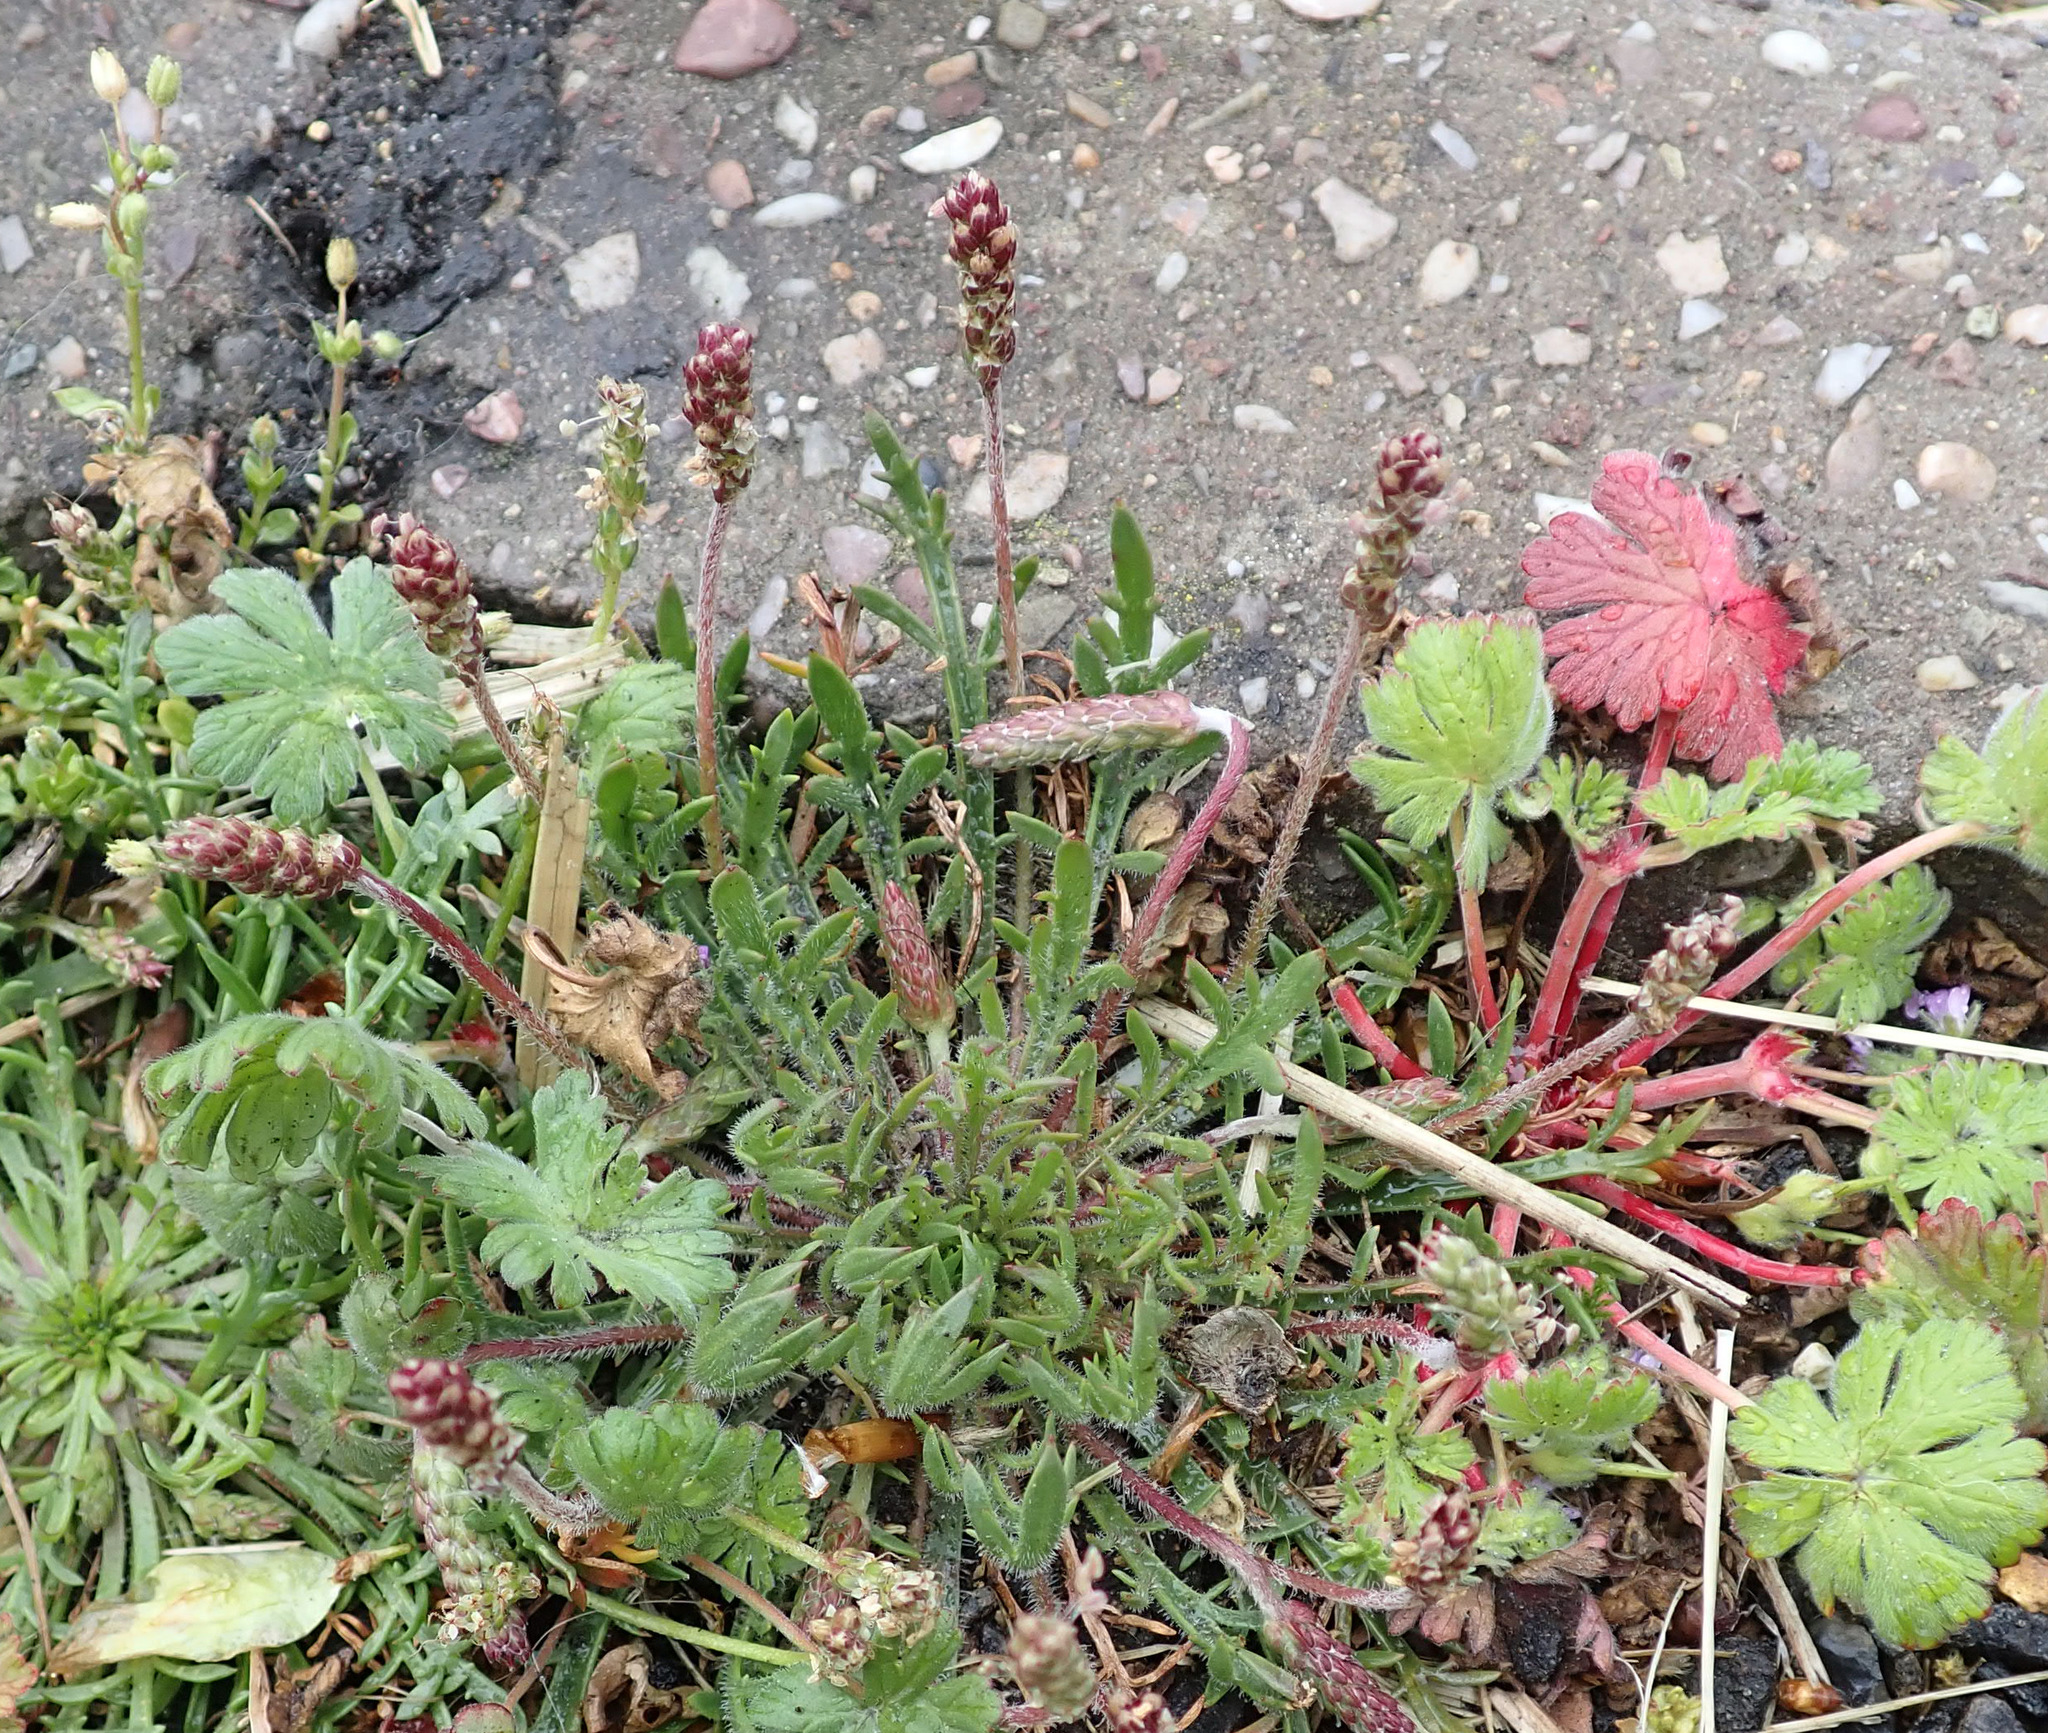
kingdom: Plantae
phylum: Tracheophyta
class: Magnoliopsida
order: Lamiales
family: Plantaginaceae
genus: Plantago
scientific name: Plantago coronopus
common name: Buck's-horn plantain
